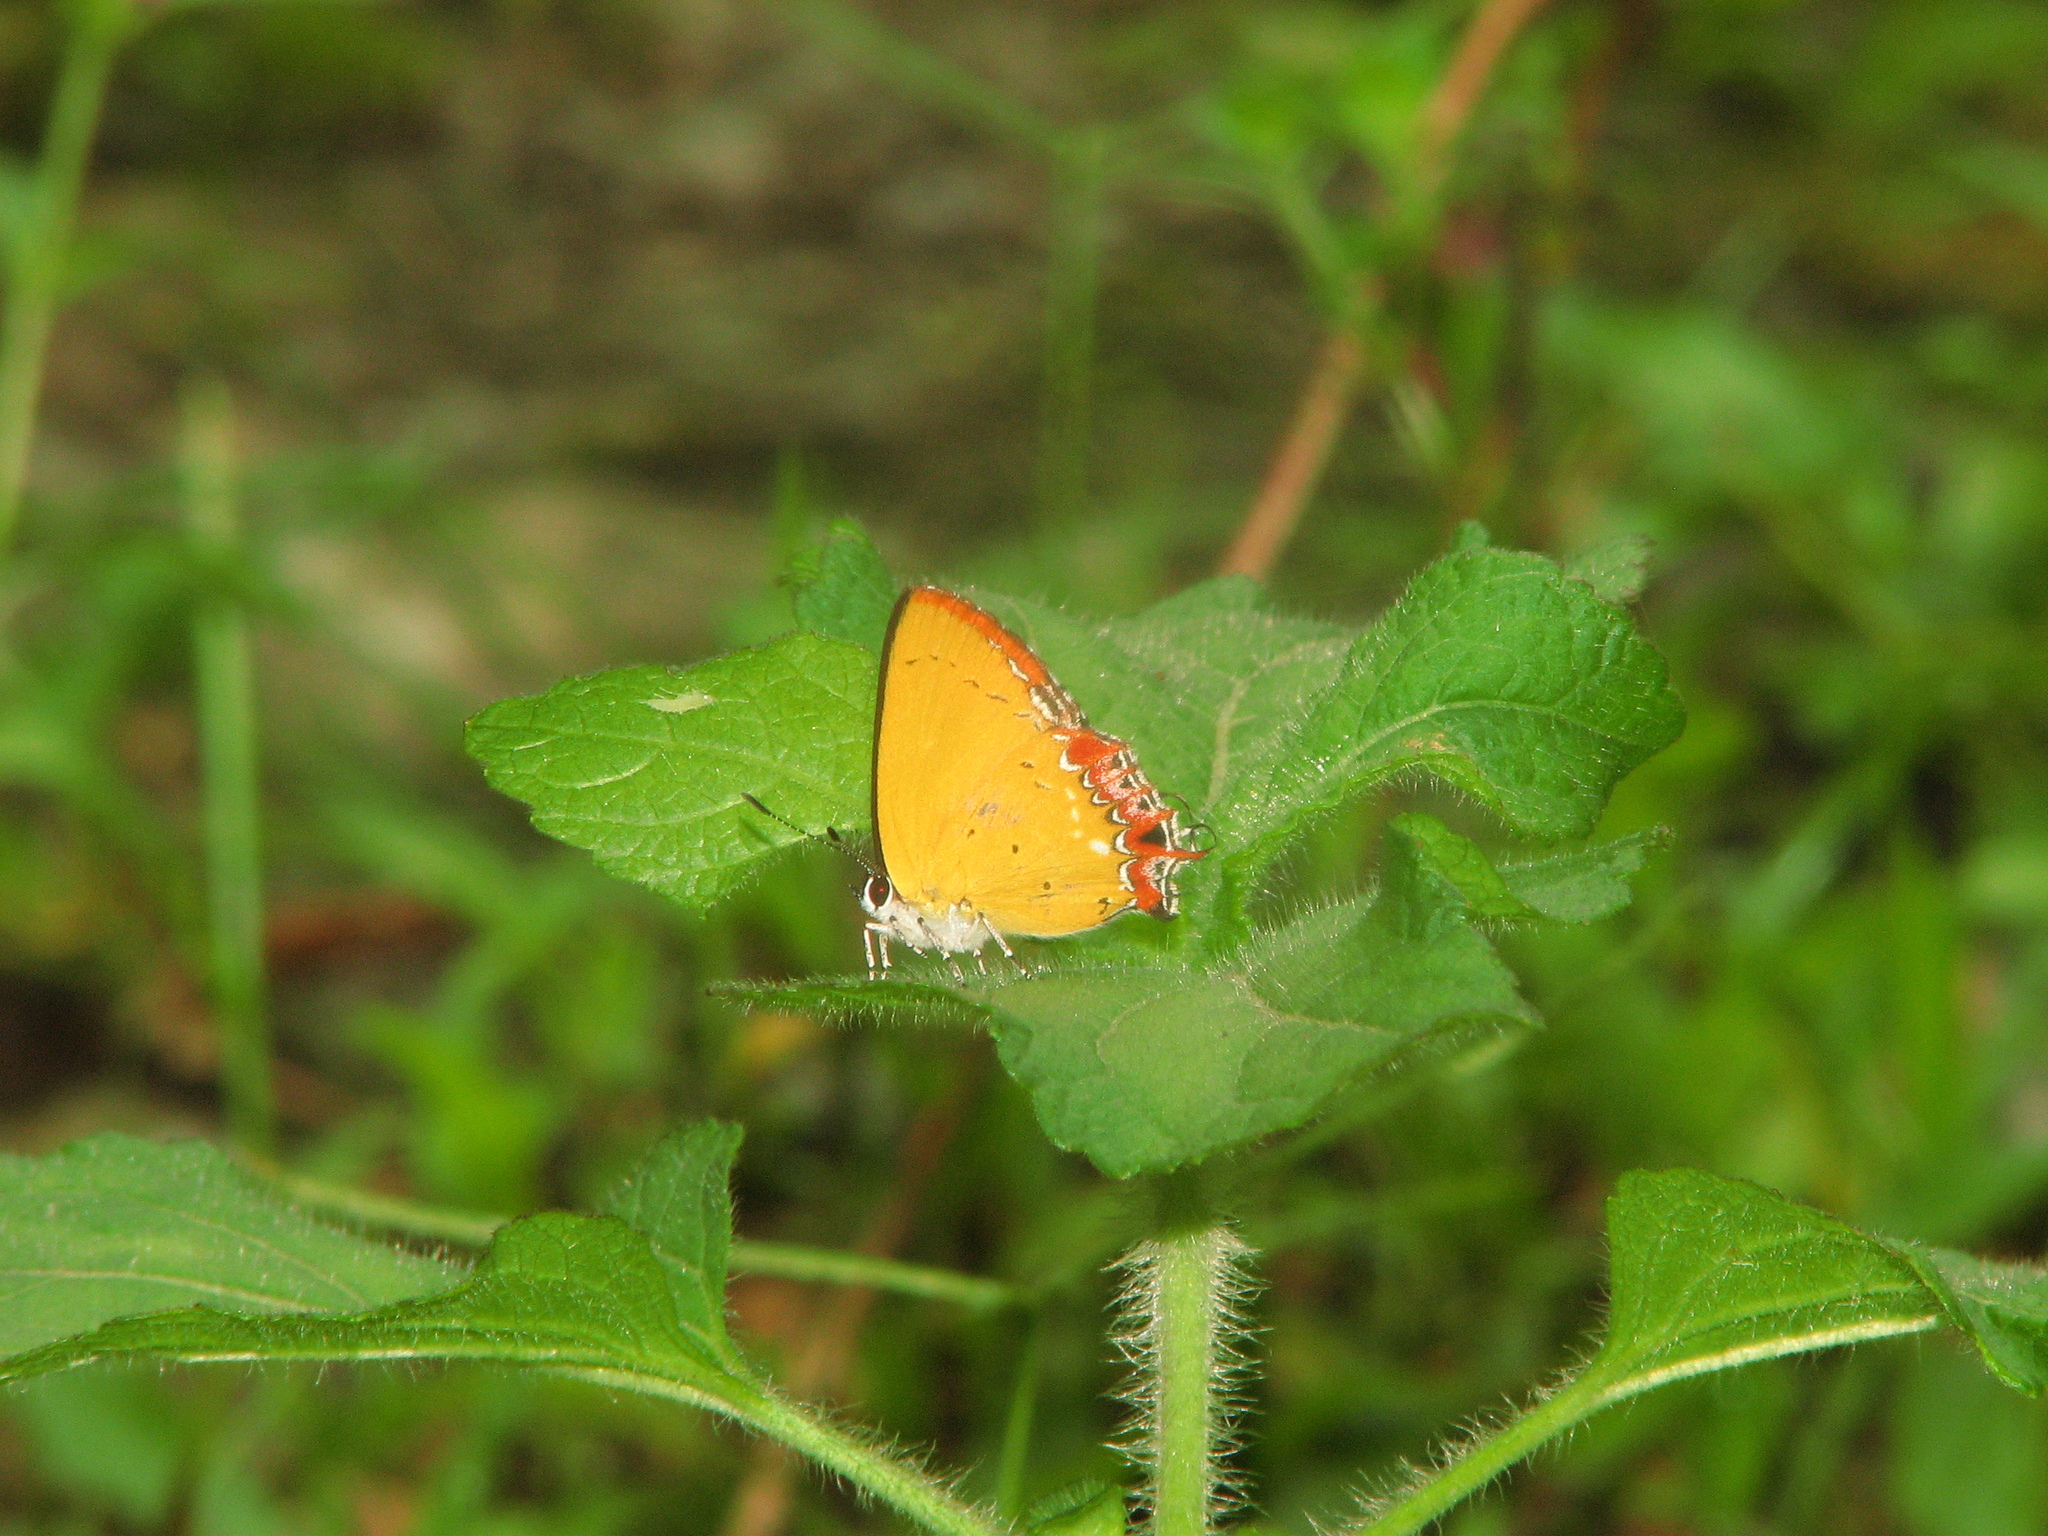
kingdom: Animalia
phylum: Arthropoda
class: Insecta
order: Lepidoptera
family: Lycaenidae
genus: Heliophorus
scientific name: Heliophorus epicles
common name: Purple sapphire
